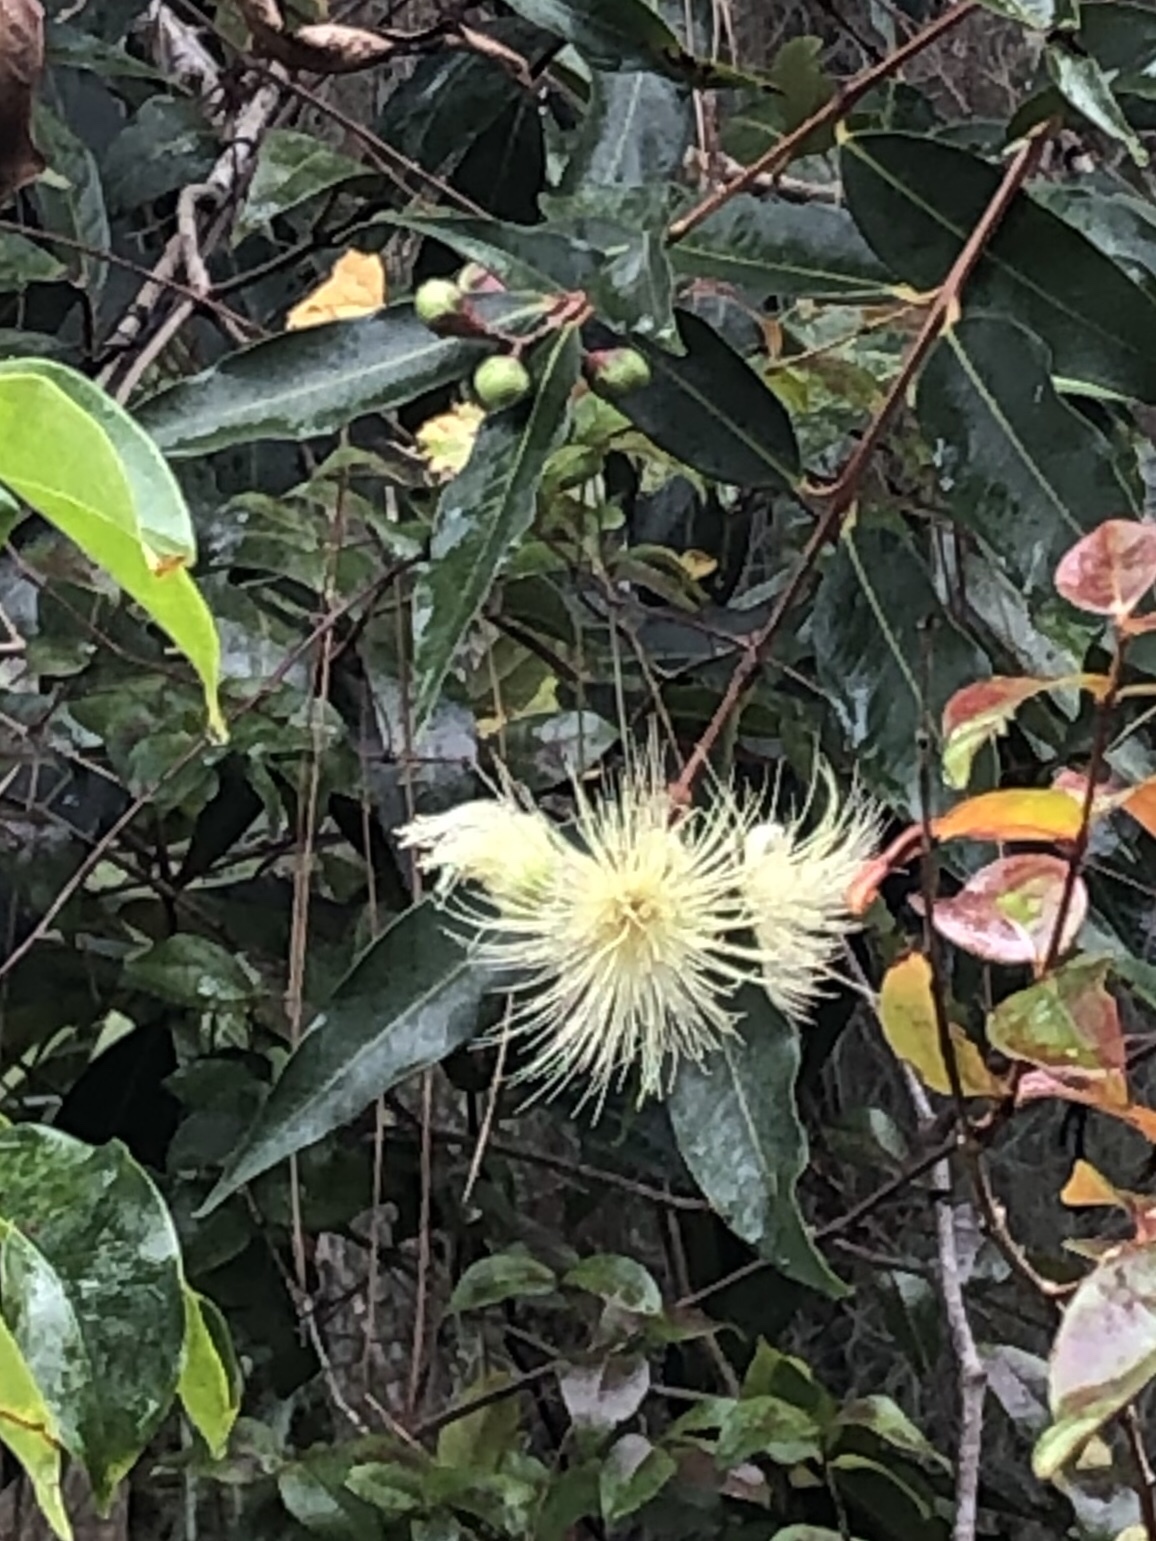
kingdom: Plantae
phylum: Tracheophyta
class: Magnoliopsida
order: Myrtales
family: Myrtaceae
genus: Syzygium
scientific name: Syzygium jambos
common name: Malabar plum
